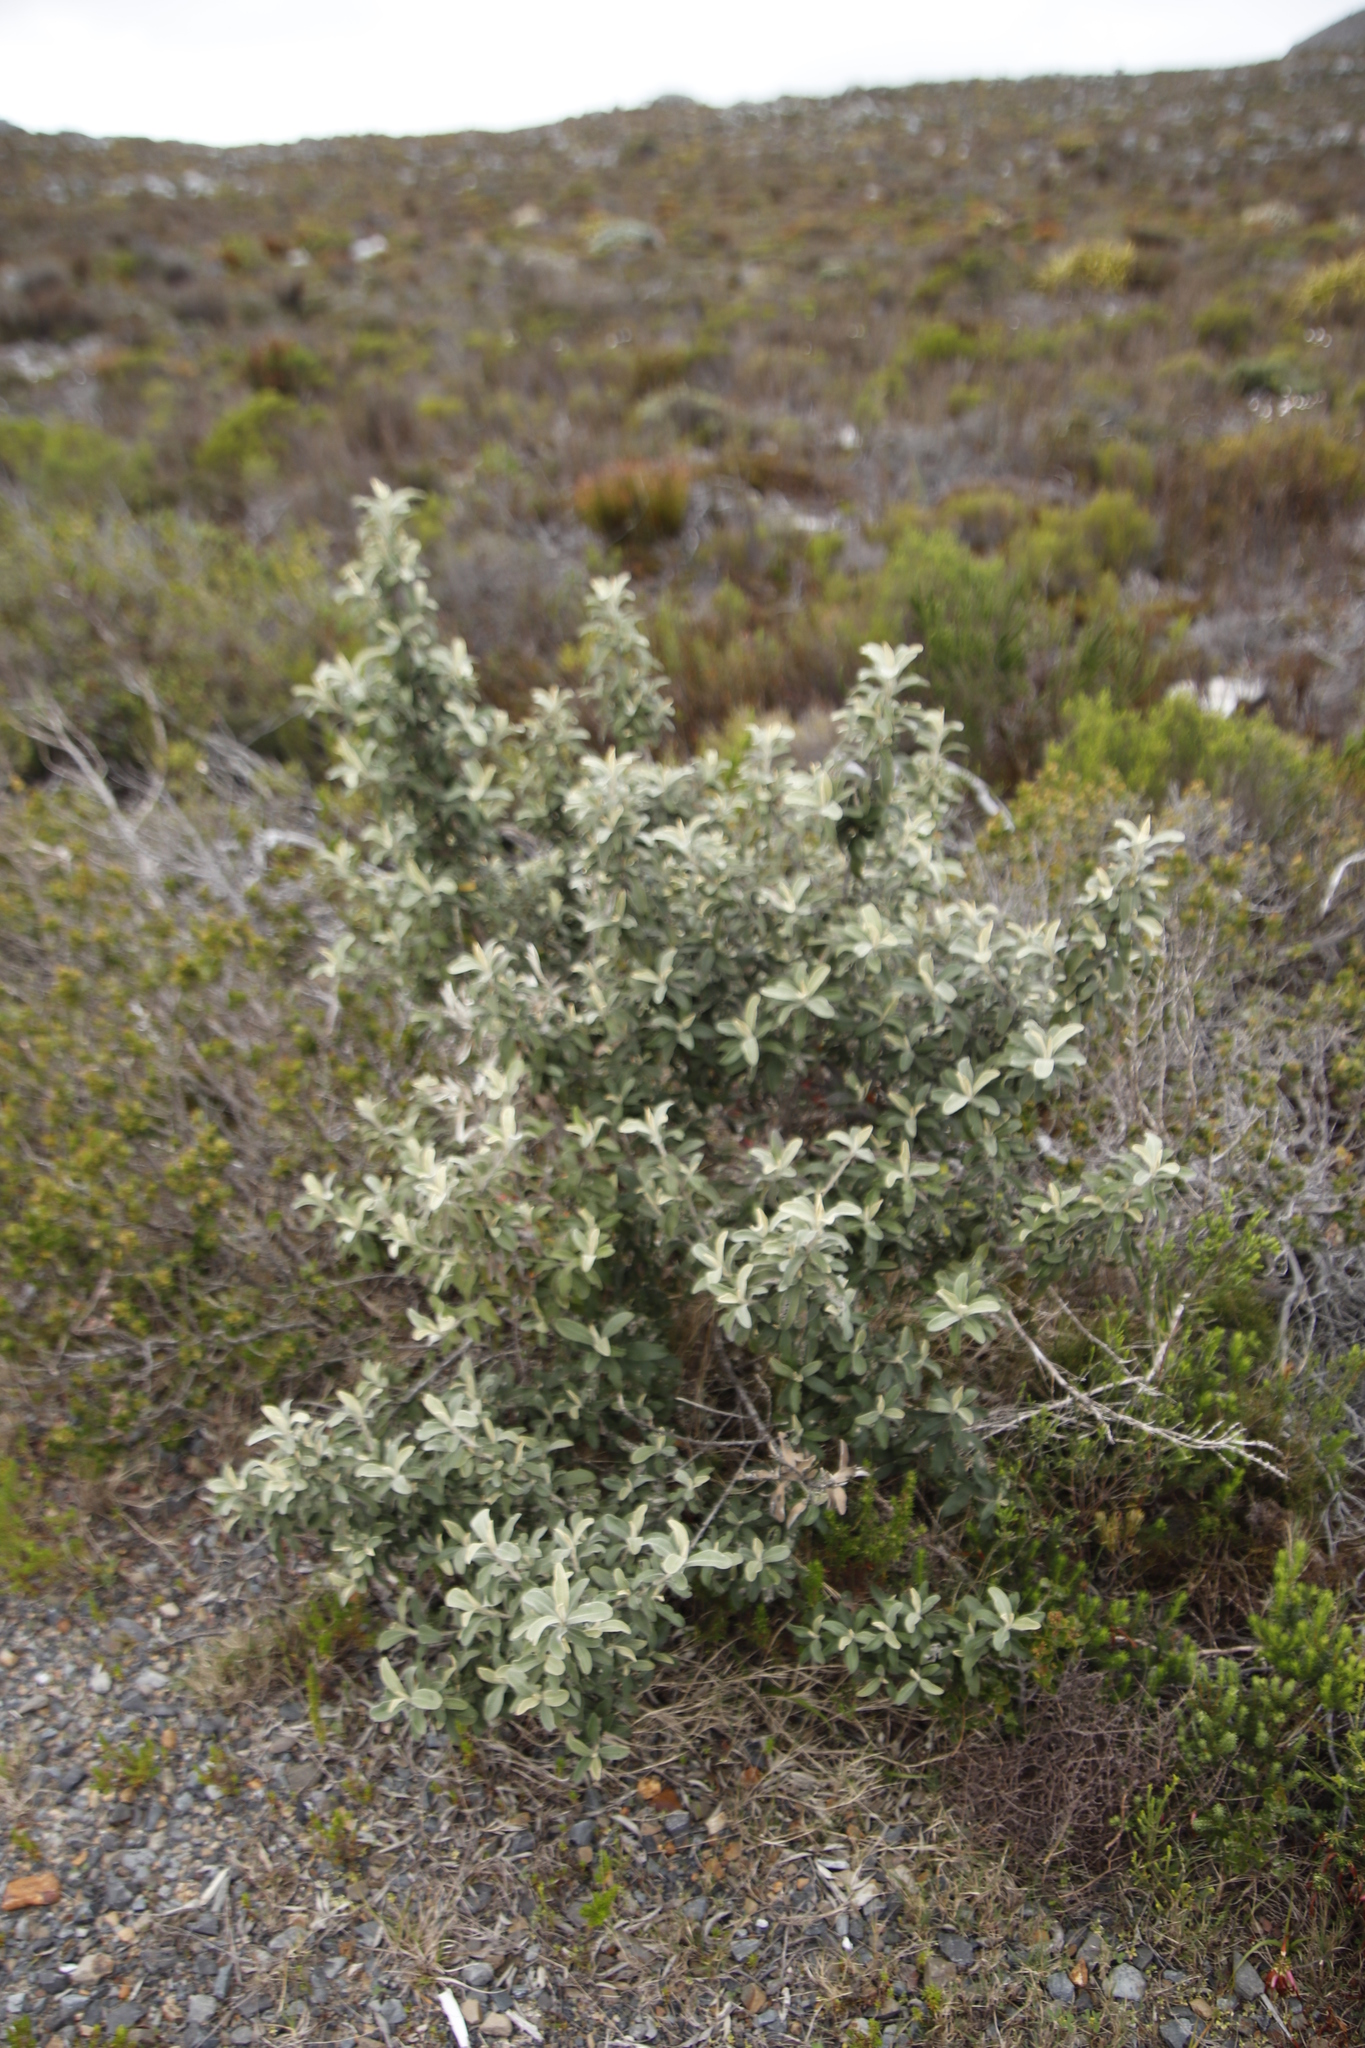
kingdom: Plantae
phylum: Tracheophyta
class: Magnoliopsida
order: Asterales
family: Asteraceae
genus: Tarchonanthus
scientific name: Tarchonanthus littoralis
